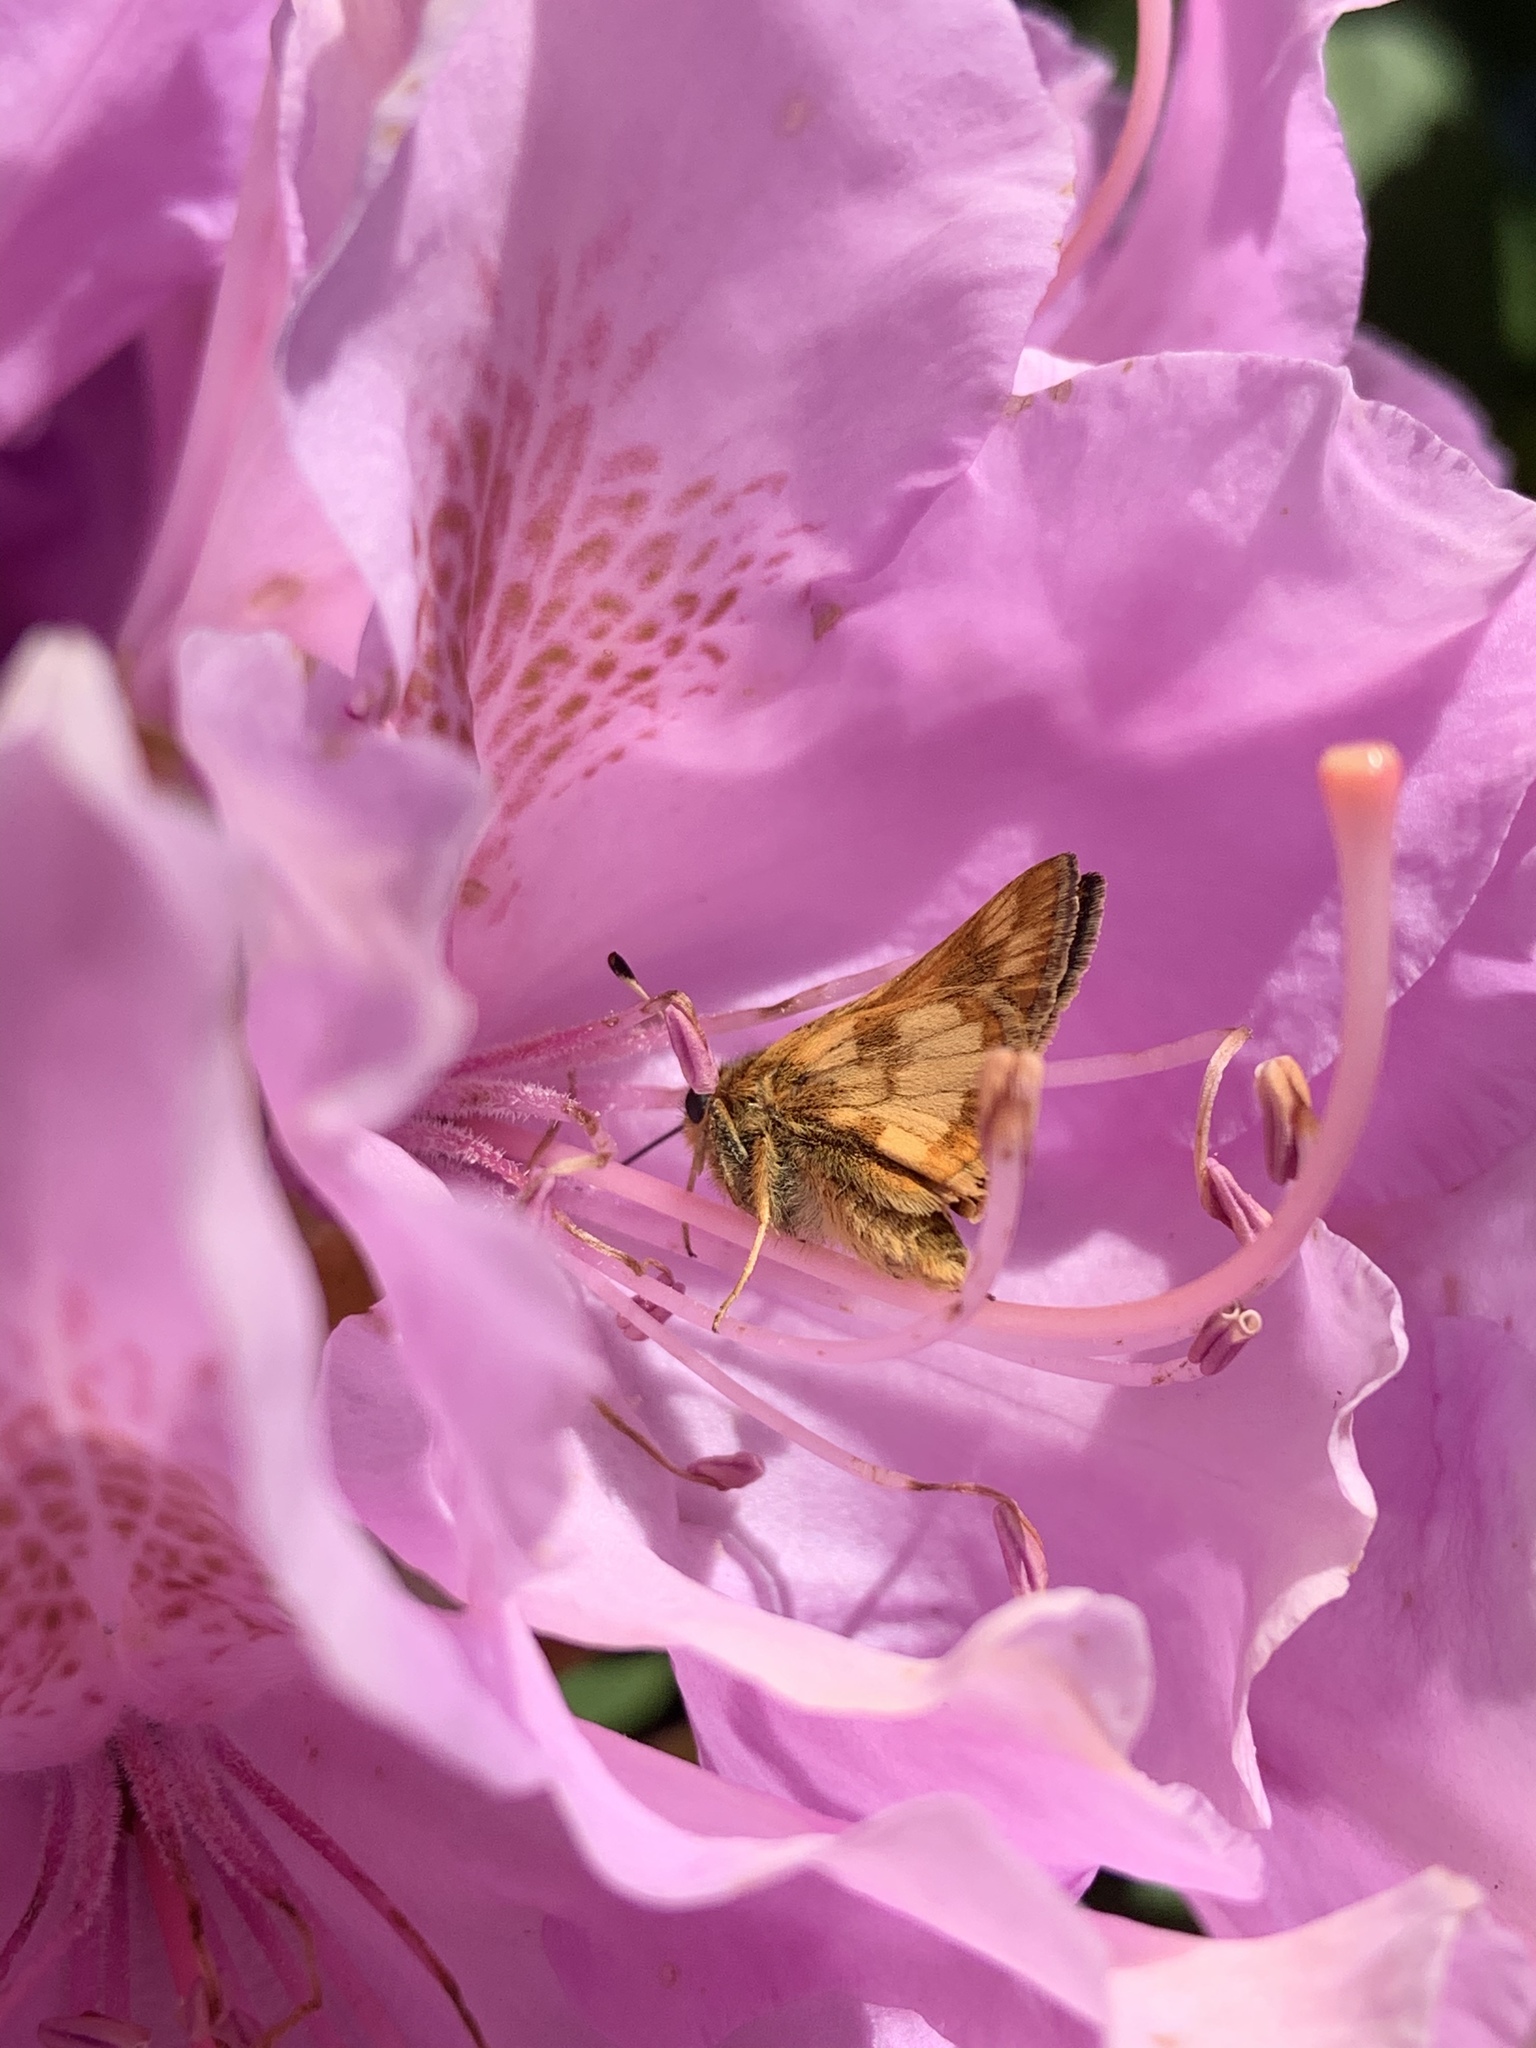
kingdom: Animalia
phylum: Arthropoda
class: Insecta
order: Lepidoptera
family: Hesperiidae
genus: Polites
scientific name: Polites coras
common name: Peck's skipper
